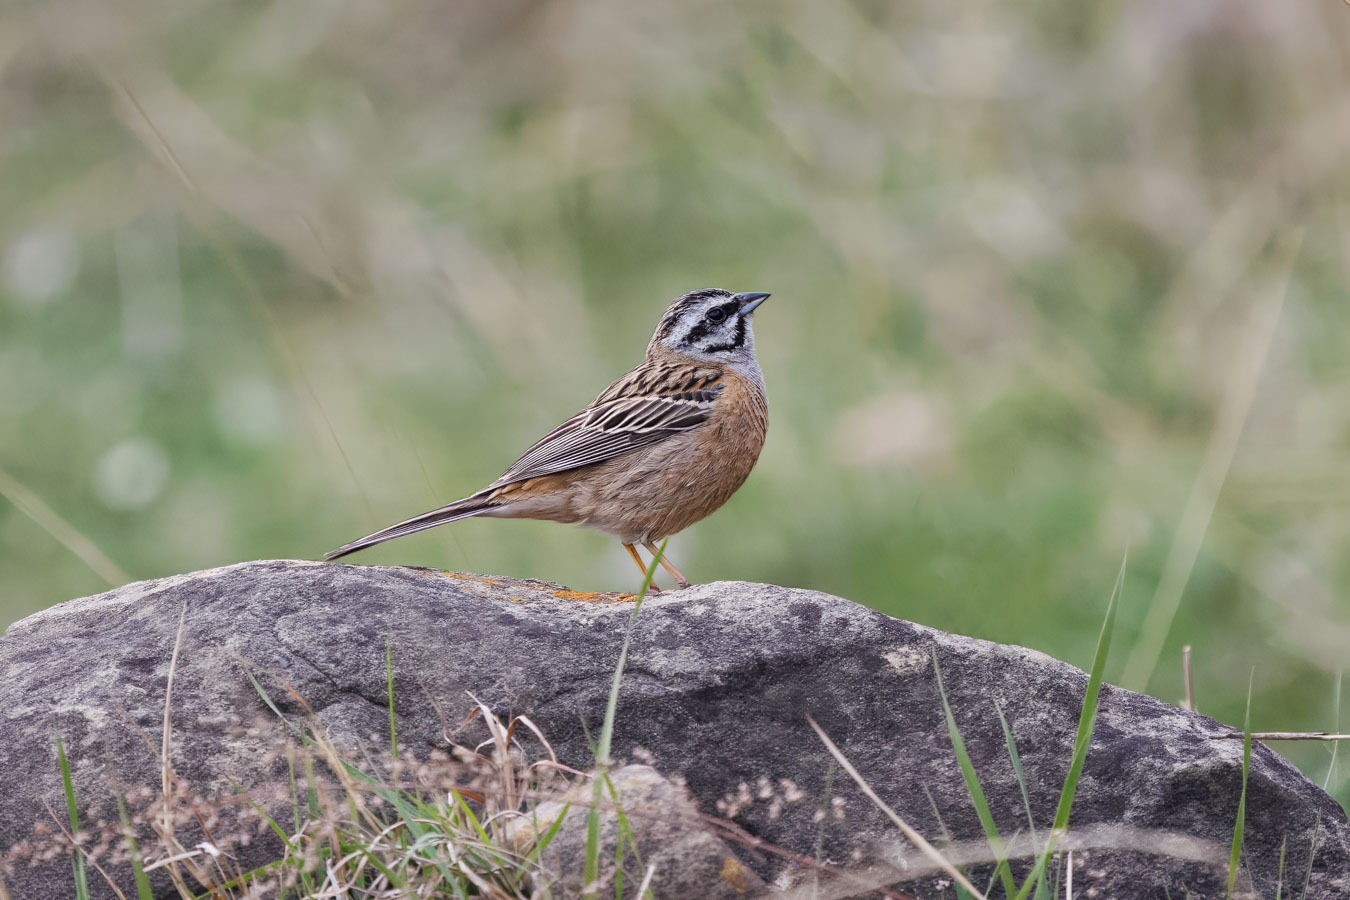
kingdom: Animalia
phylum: Chordata
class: Aves
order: Passeriformes
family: Emberizidae
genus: Emberiza
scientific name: Emberiza cia
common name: Rock bunting
